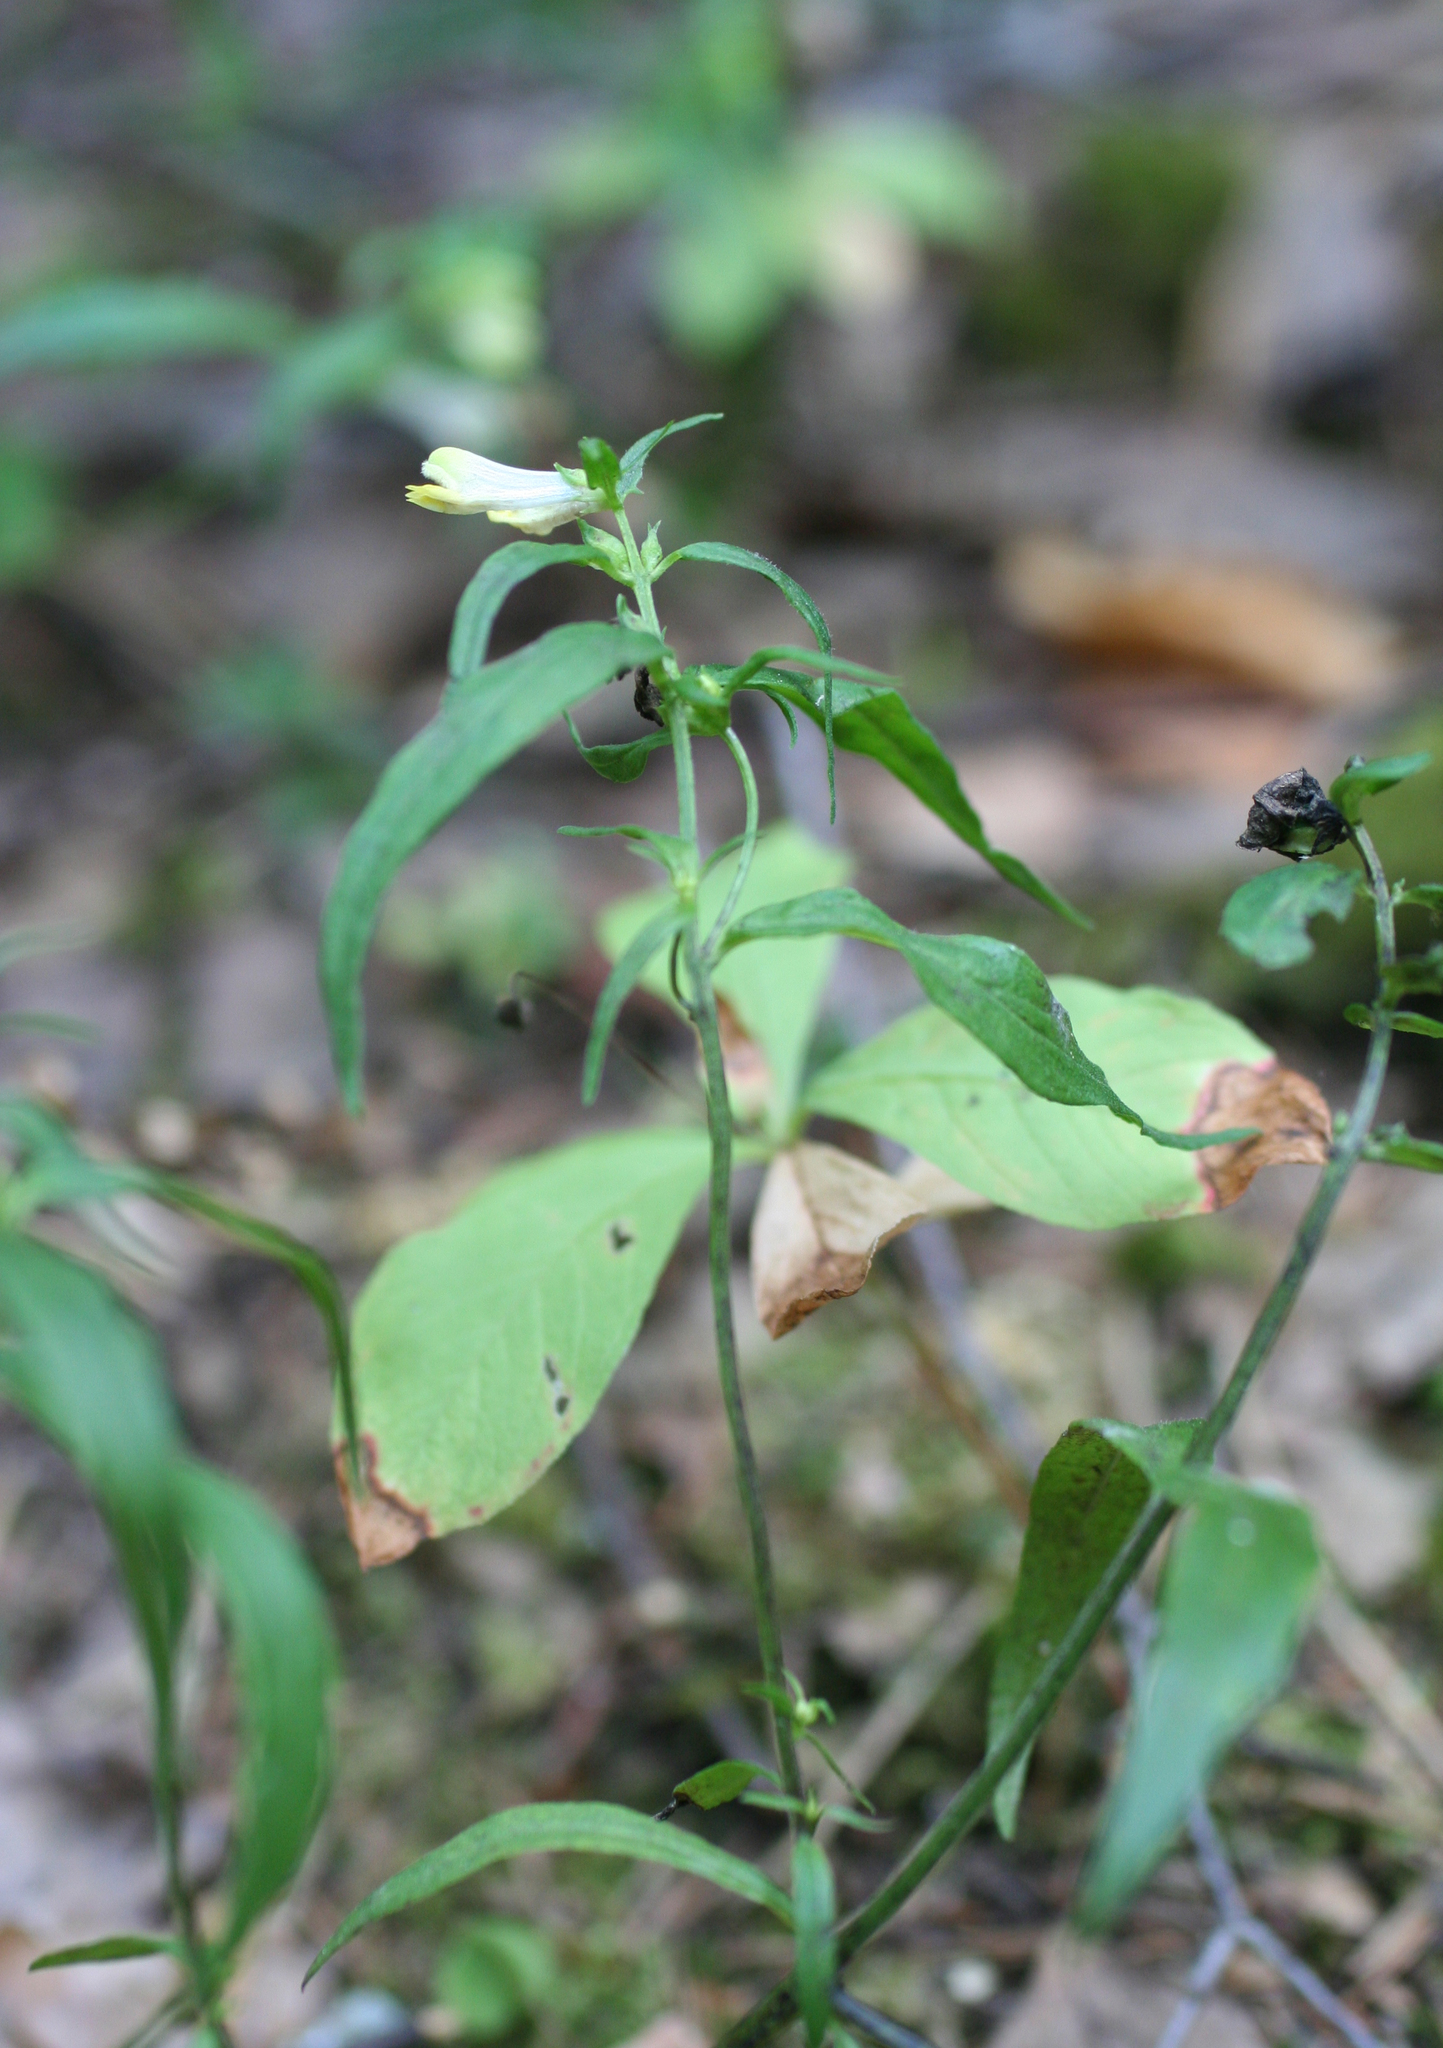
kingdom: Plantae
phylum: Tracheophyta
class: Magnoliopsida
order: Lamiales
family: Orobanchaceae
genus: Melampyrum
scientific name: Melampyrum pratense
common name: Common cow-wheat
